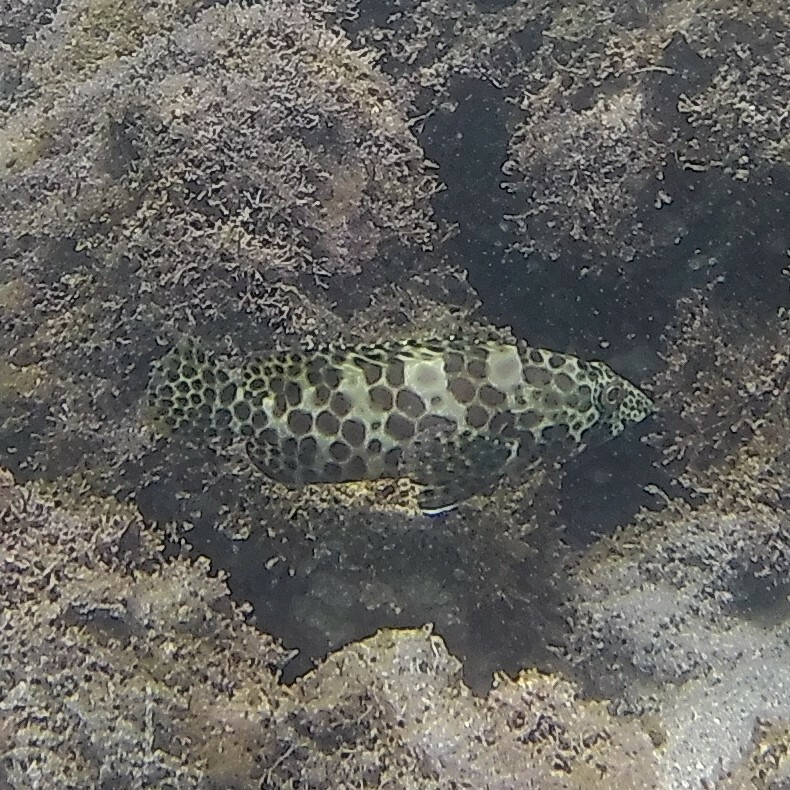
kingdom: Animalia
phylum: Chordata
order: Perciformes
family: Serranidae
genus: Epinephelus
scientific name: Epinephelus merra
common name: Honeycomb grouper
